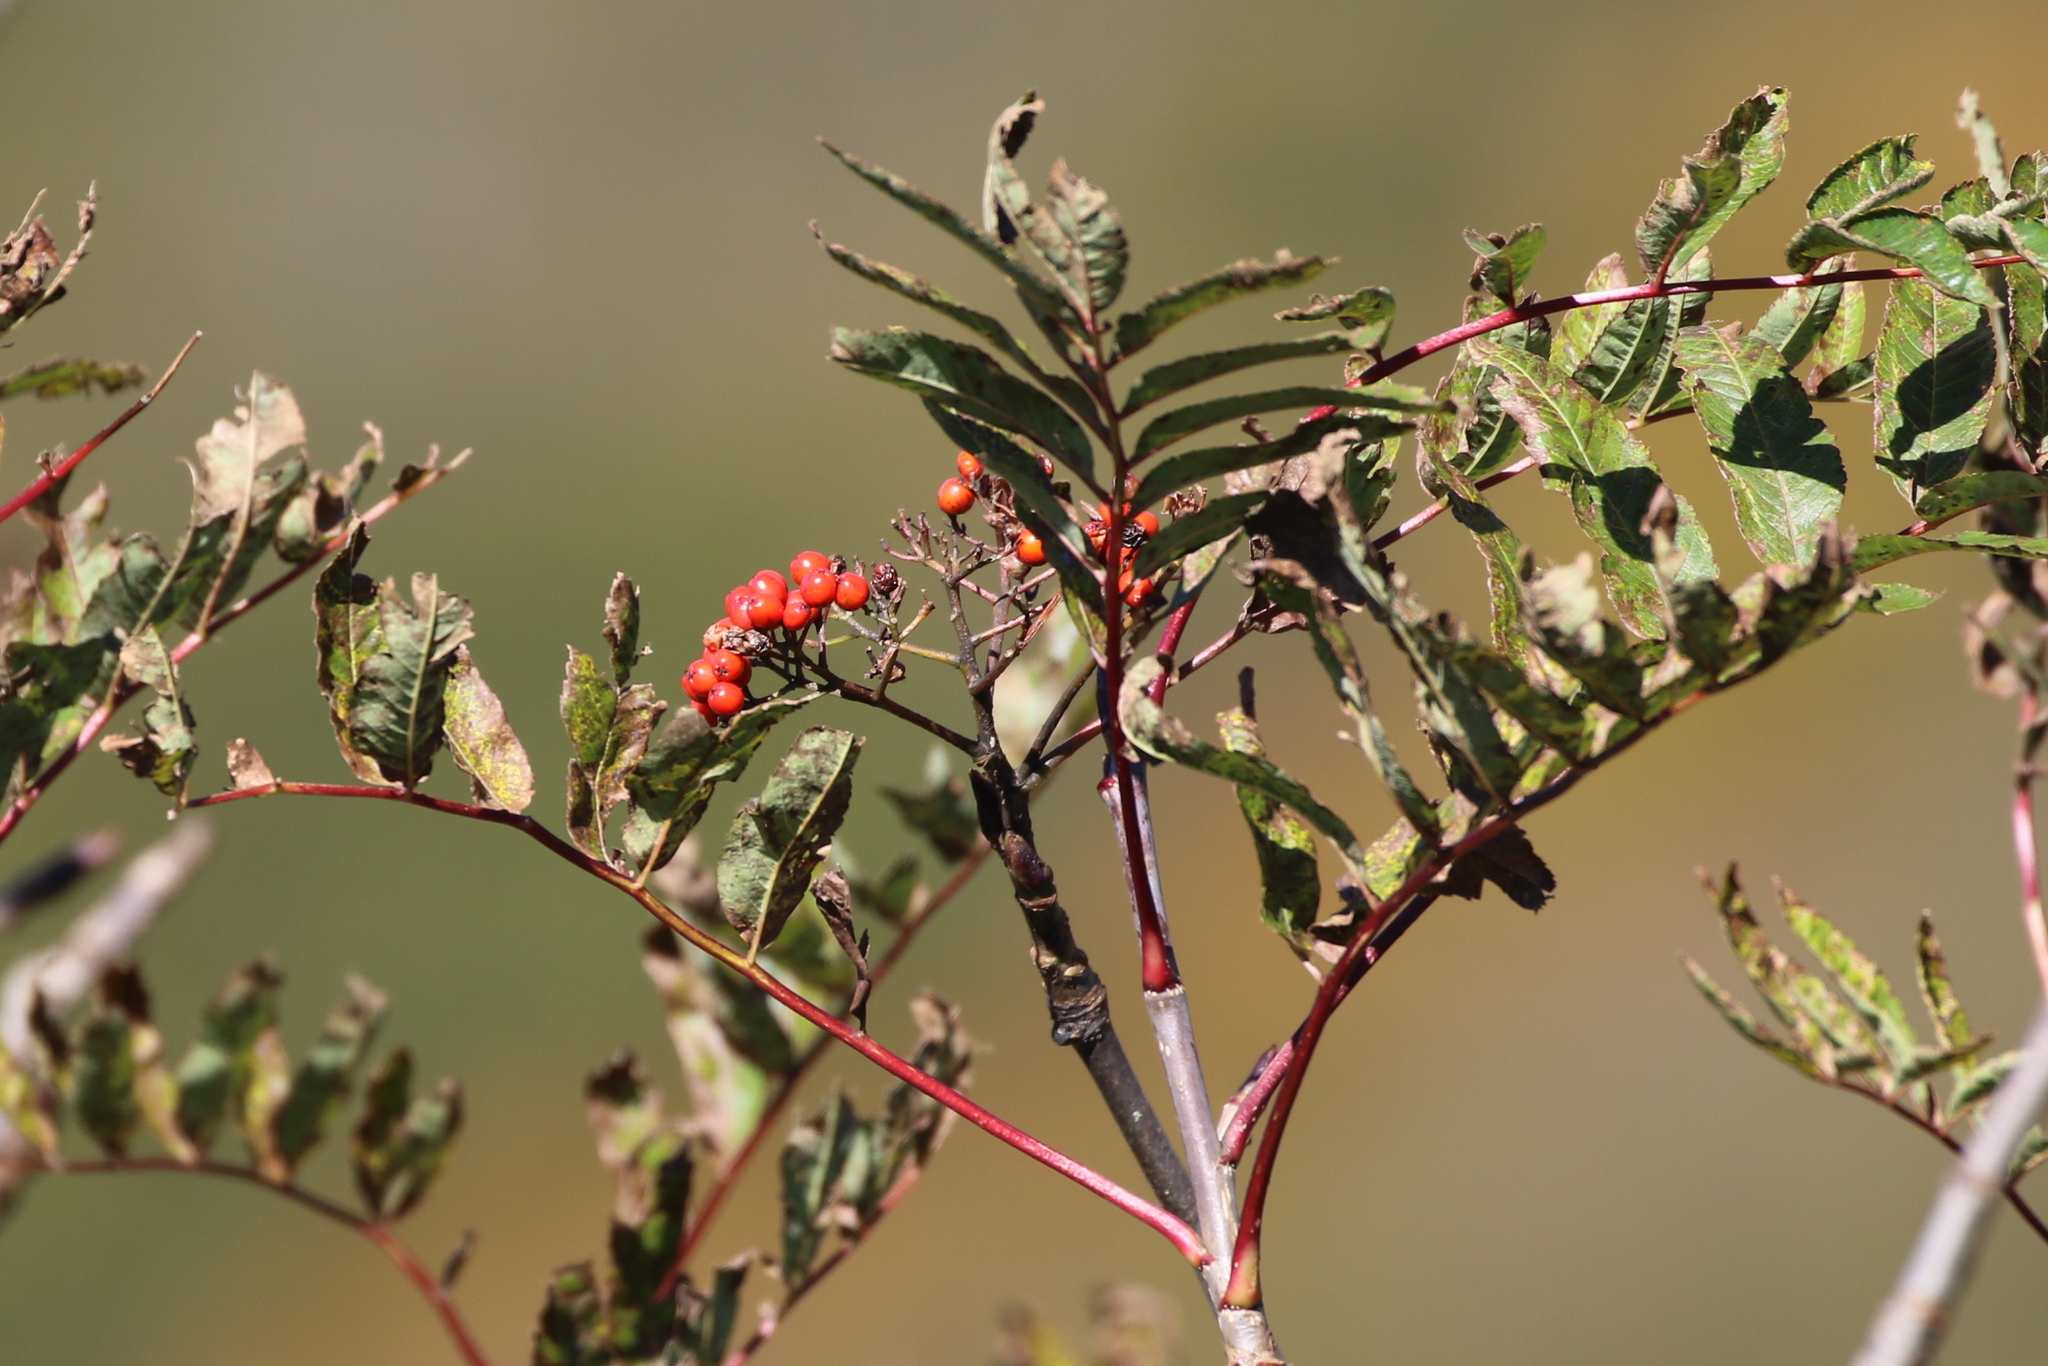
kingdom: Plantae
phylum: Tracheophyta
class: Magnoliopsida
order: Rosales
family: Rosaceae
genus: Sorbus
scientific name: Sorbus americana
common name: American mountain-ash
